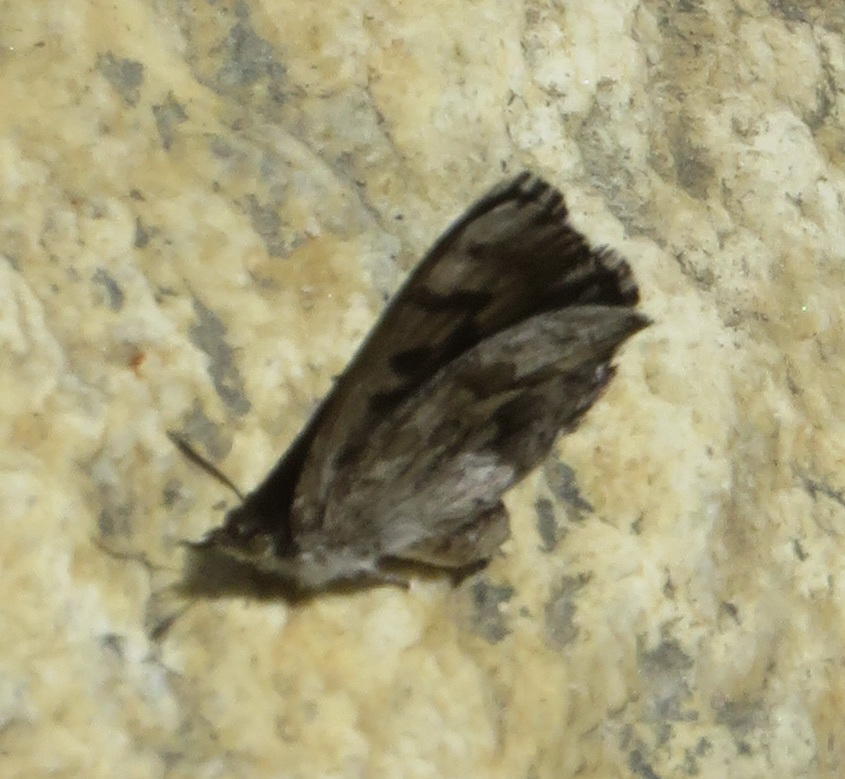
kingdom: Animalia
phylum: Arthropoda
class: Insecta
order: Lepidoptera
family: Lycaenidae
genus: Thestor
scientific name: Thestor braunsi
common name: Braun's skolly
